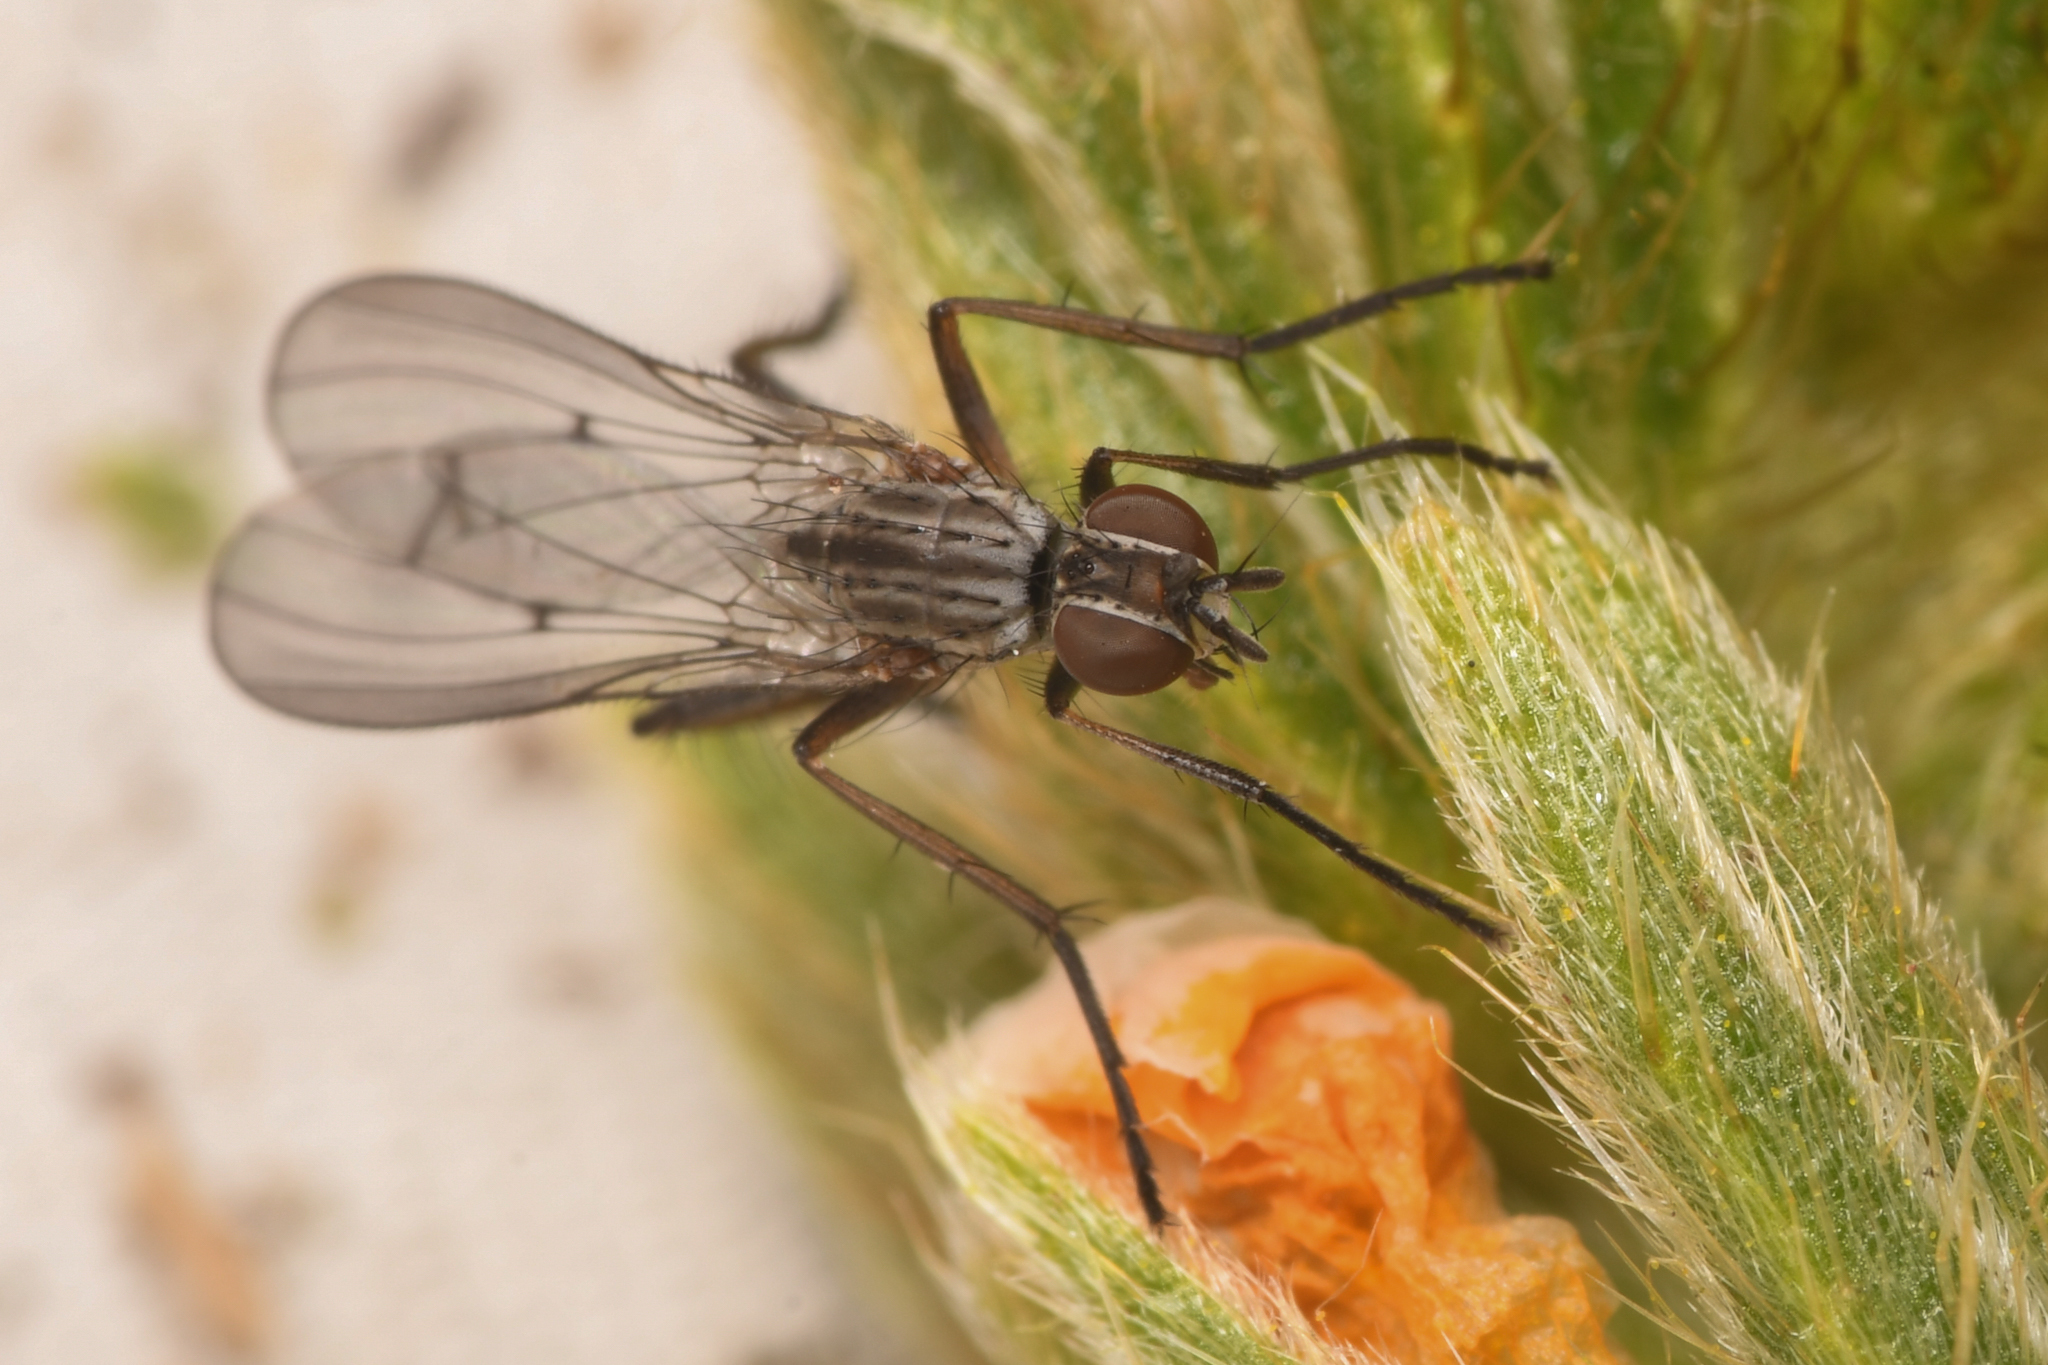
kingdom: Animalia
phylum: Arthropoda
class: Insecta
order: Diptera
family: Anthomyiidae
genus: Anthomyia
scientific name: Anthomyia obscuripennis
